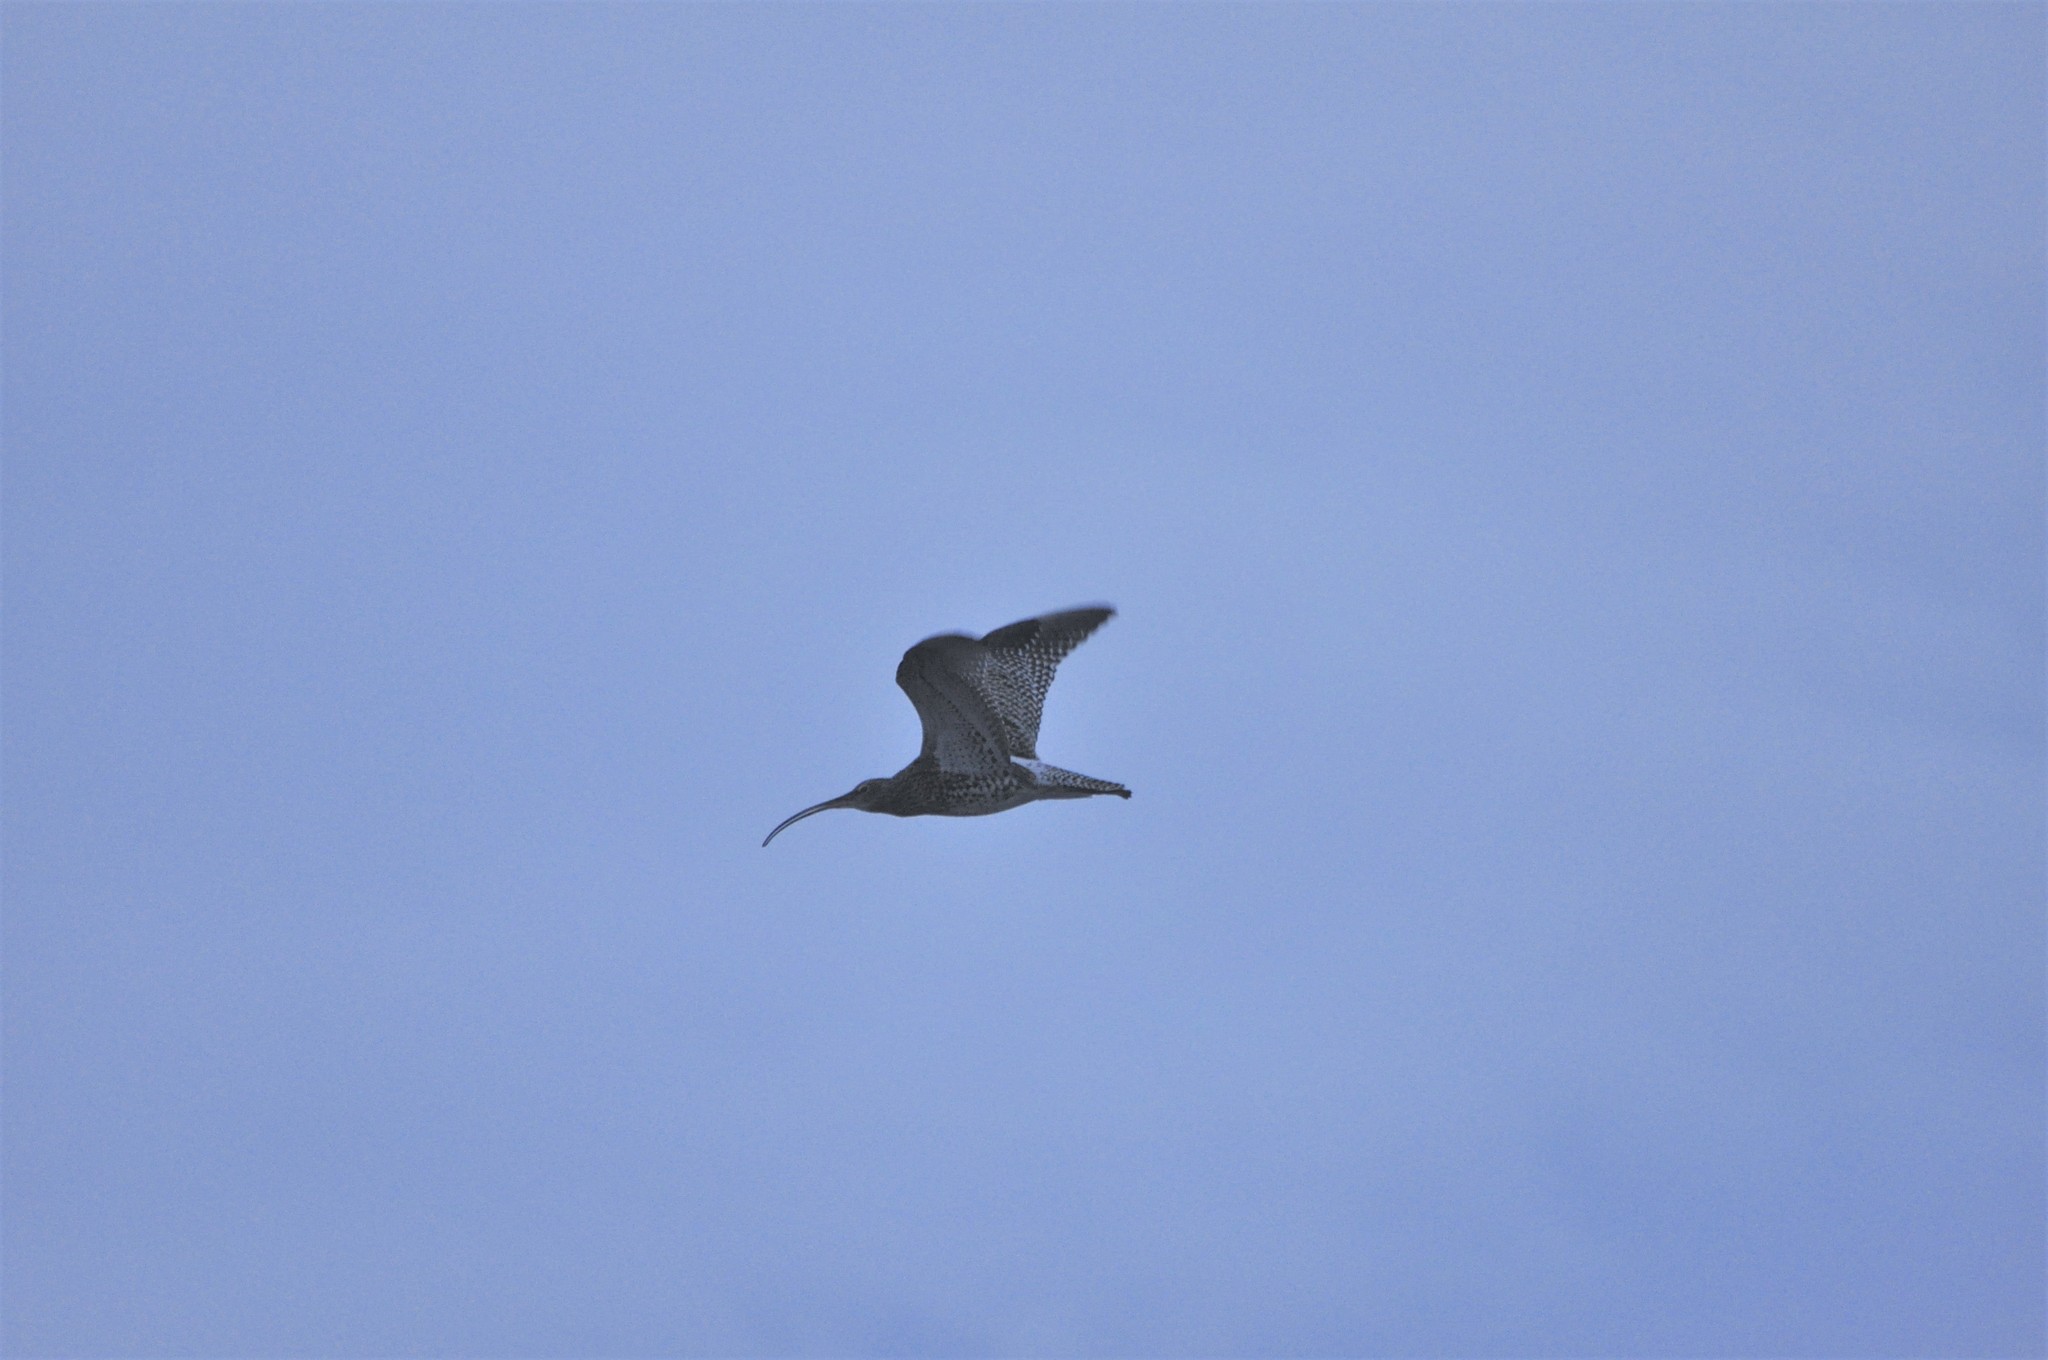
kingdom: Animalia
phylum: Chordata
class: Aves
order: Charadriiformes
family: Scolopacidae
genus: Numenius
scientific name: Numenius arquata
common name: Eurasian curlew
